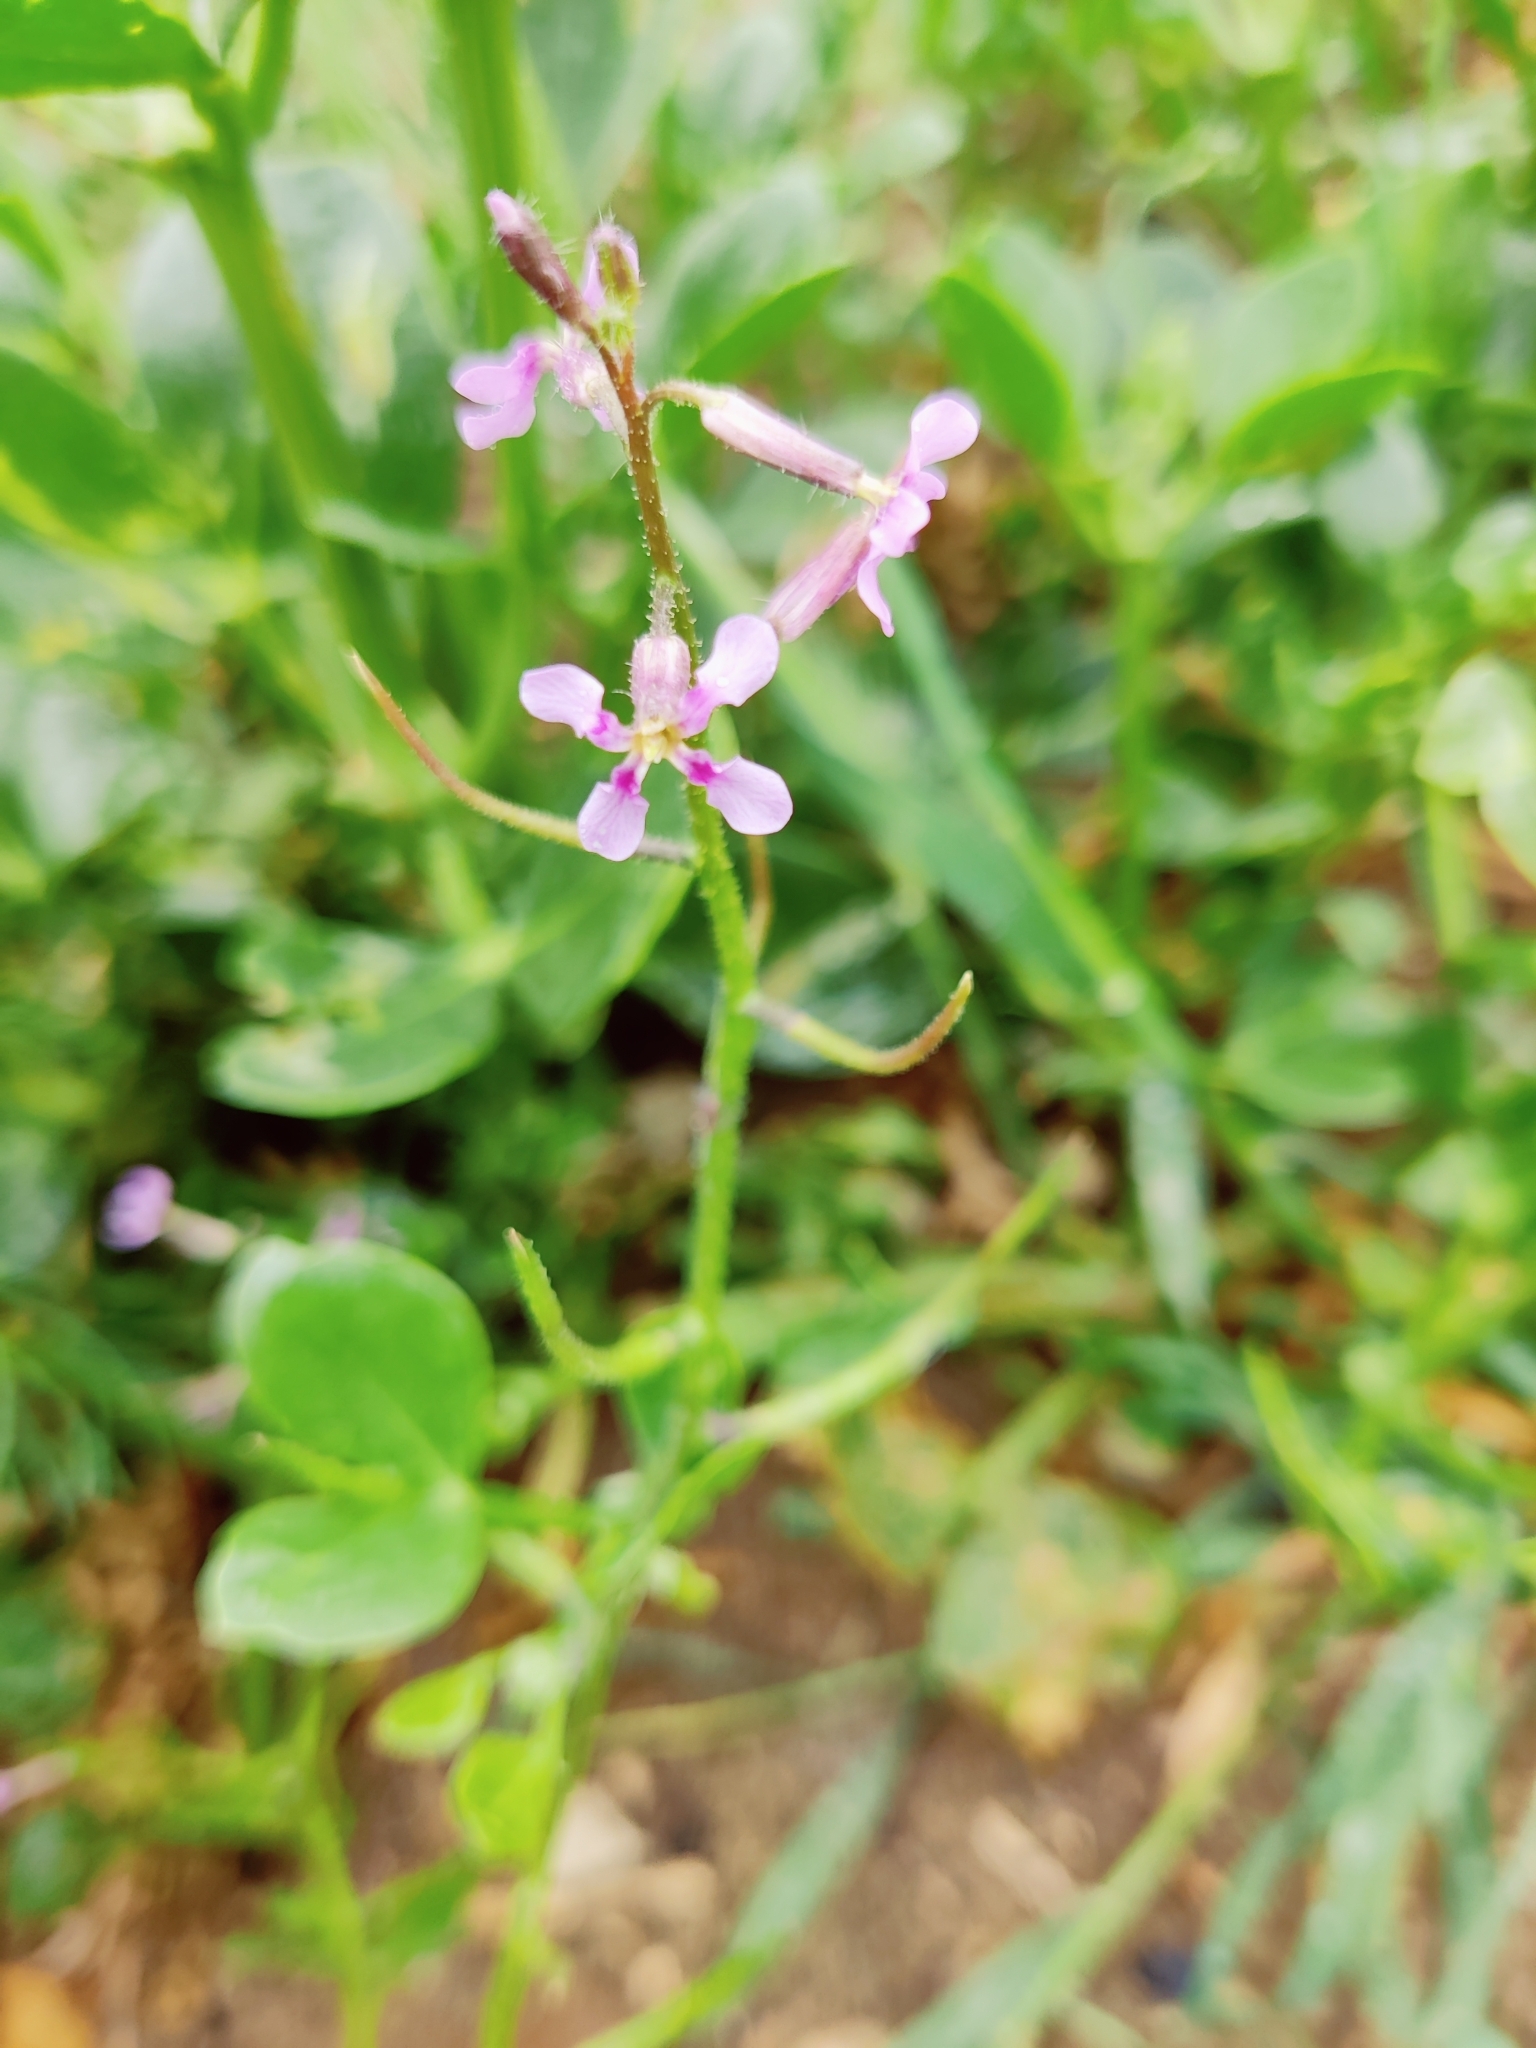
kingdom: Plantae
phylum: Tracheophyta
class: Magnoliopsida
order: Brassicales
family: Brassicaceae
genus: Chorispora
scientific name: Chorispora tenella
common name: Crossflower
